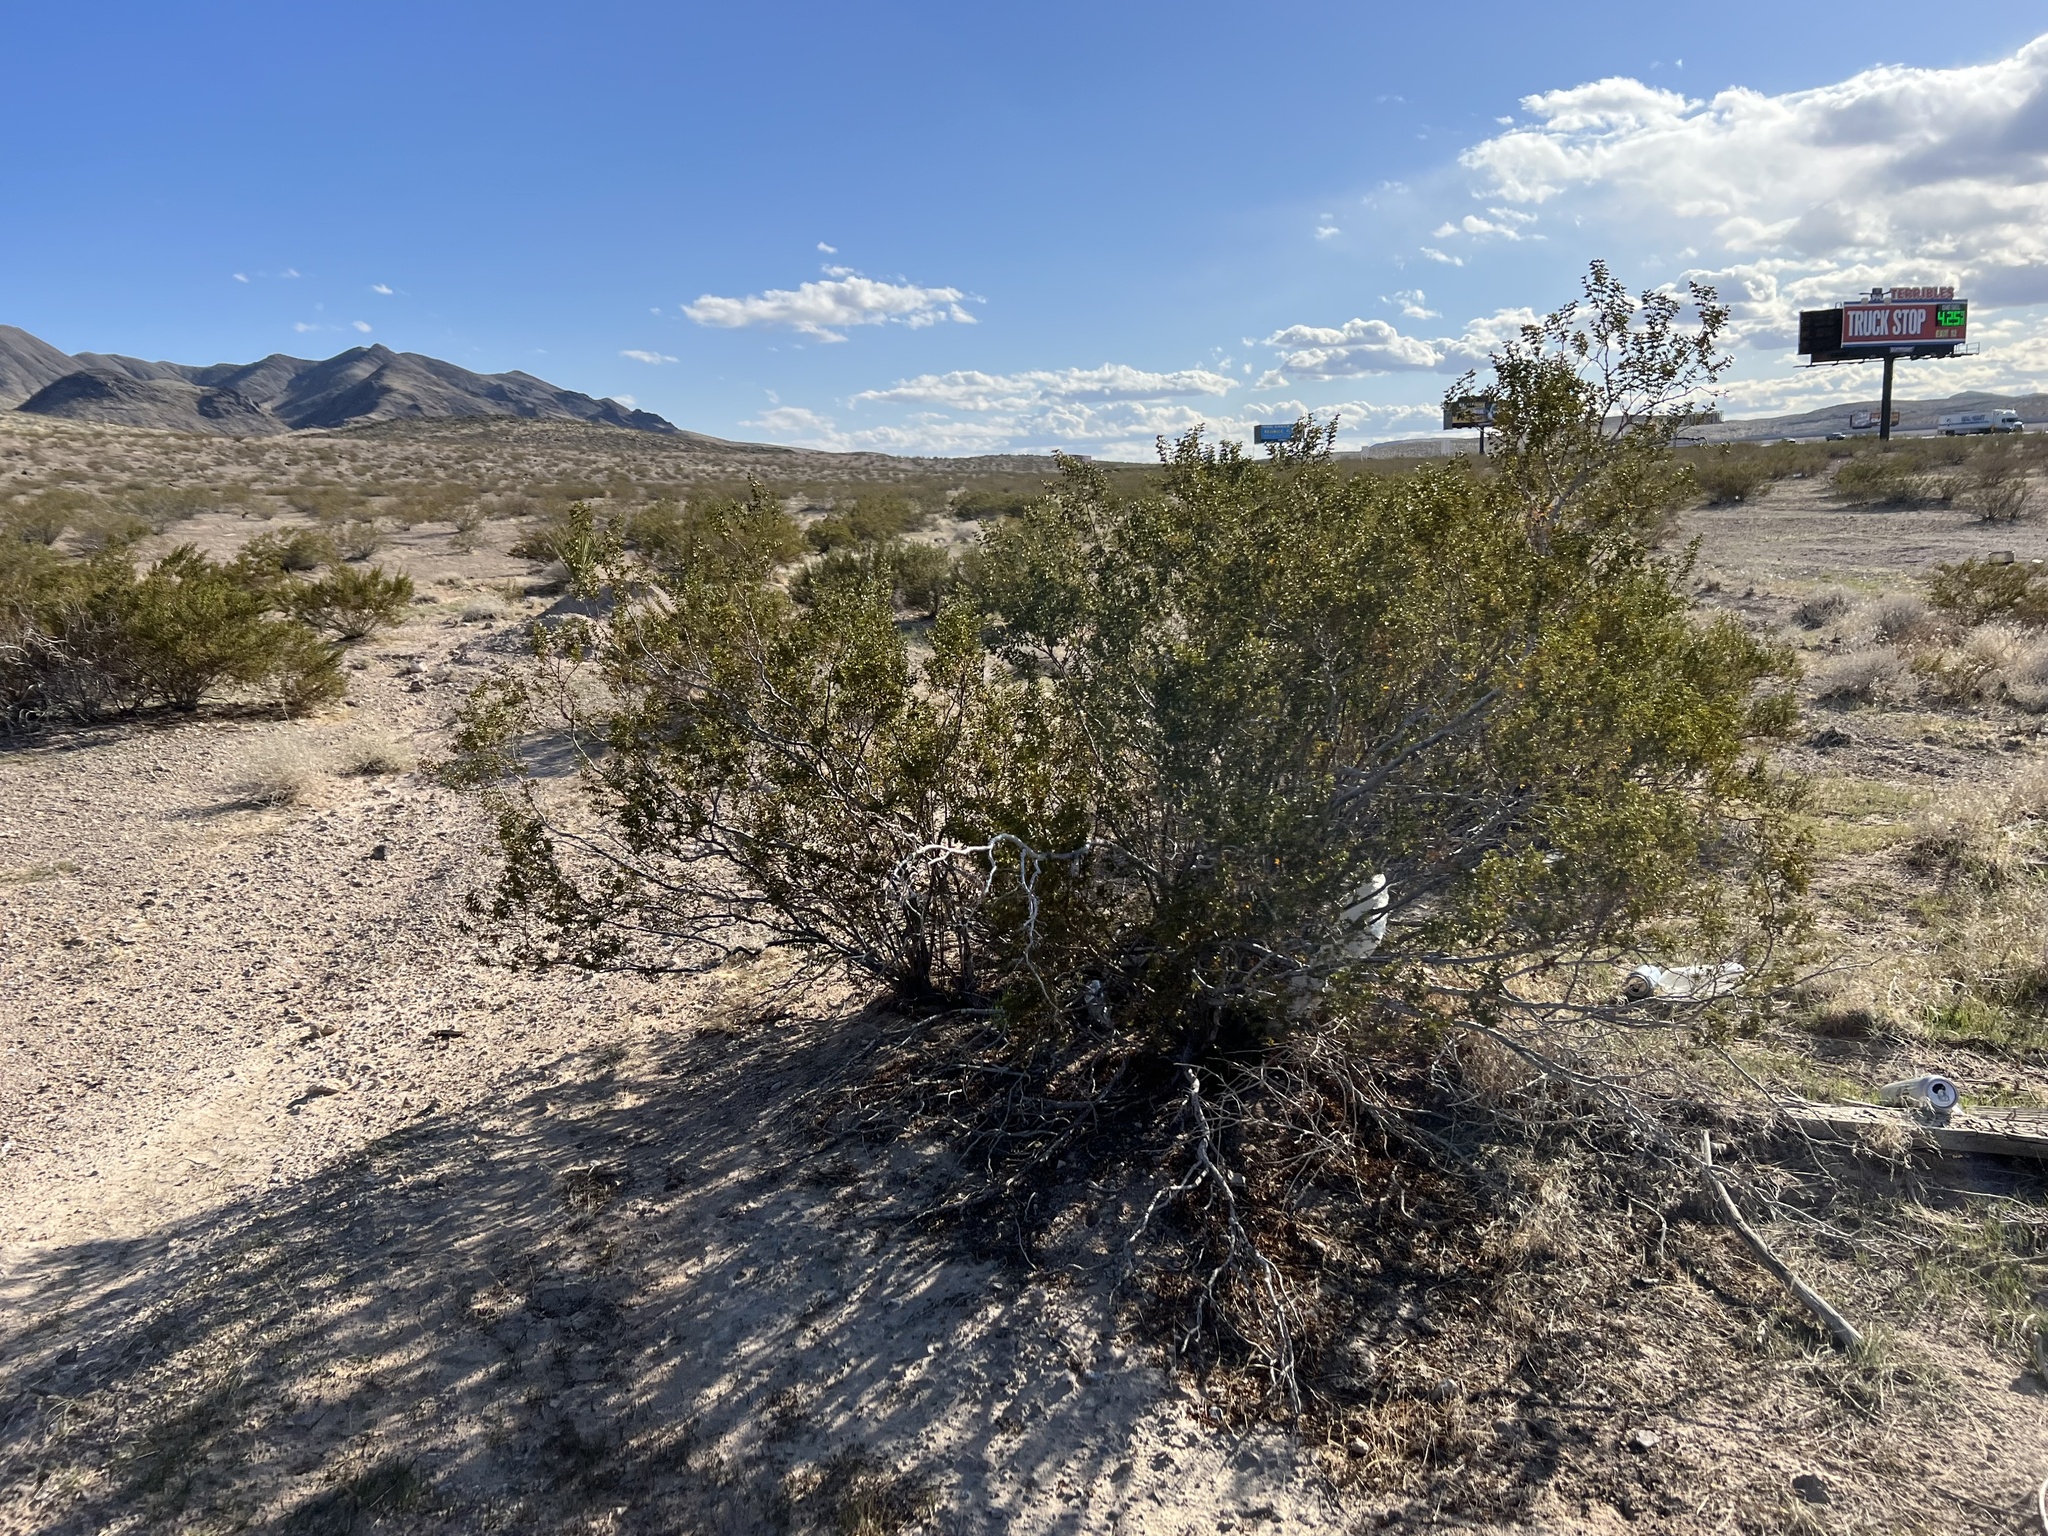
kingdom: Plantae
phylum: Tracheophyta
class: Magnoliopsida
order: Zygophyllales
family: Zygophyllaceae
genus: Larrea
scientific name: Larrea tridentata
